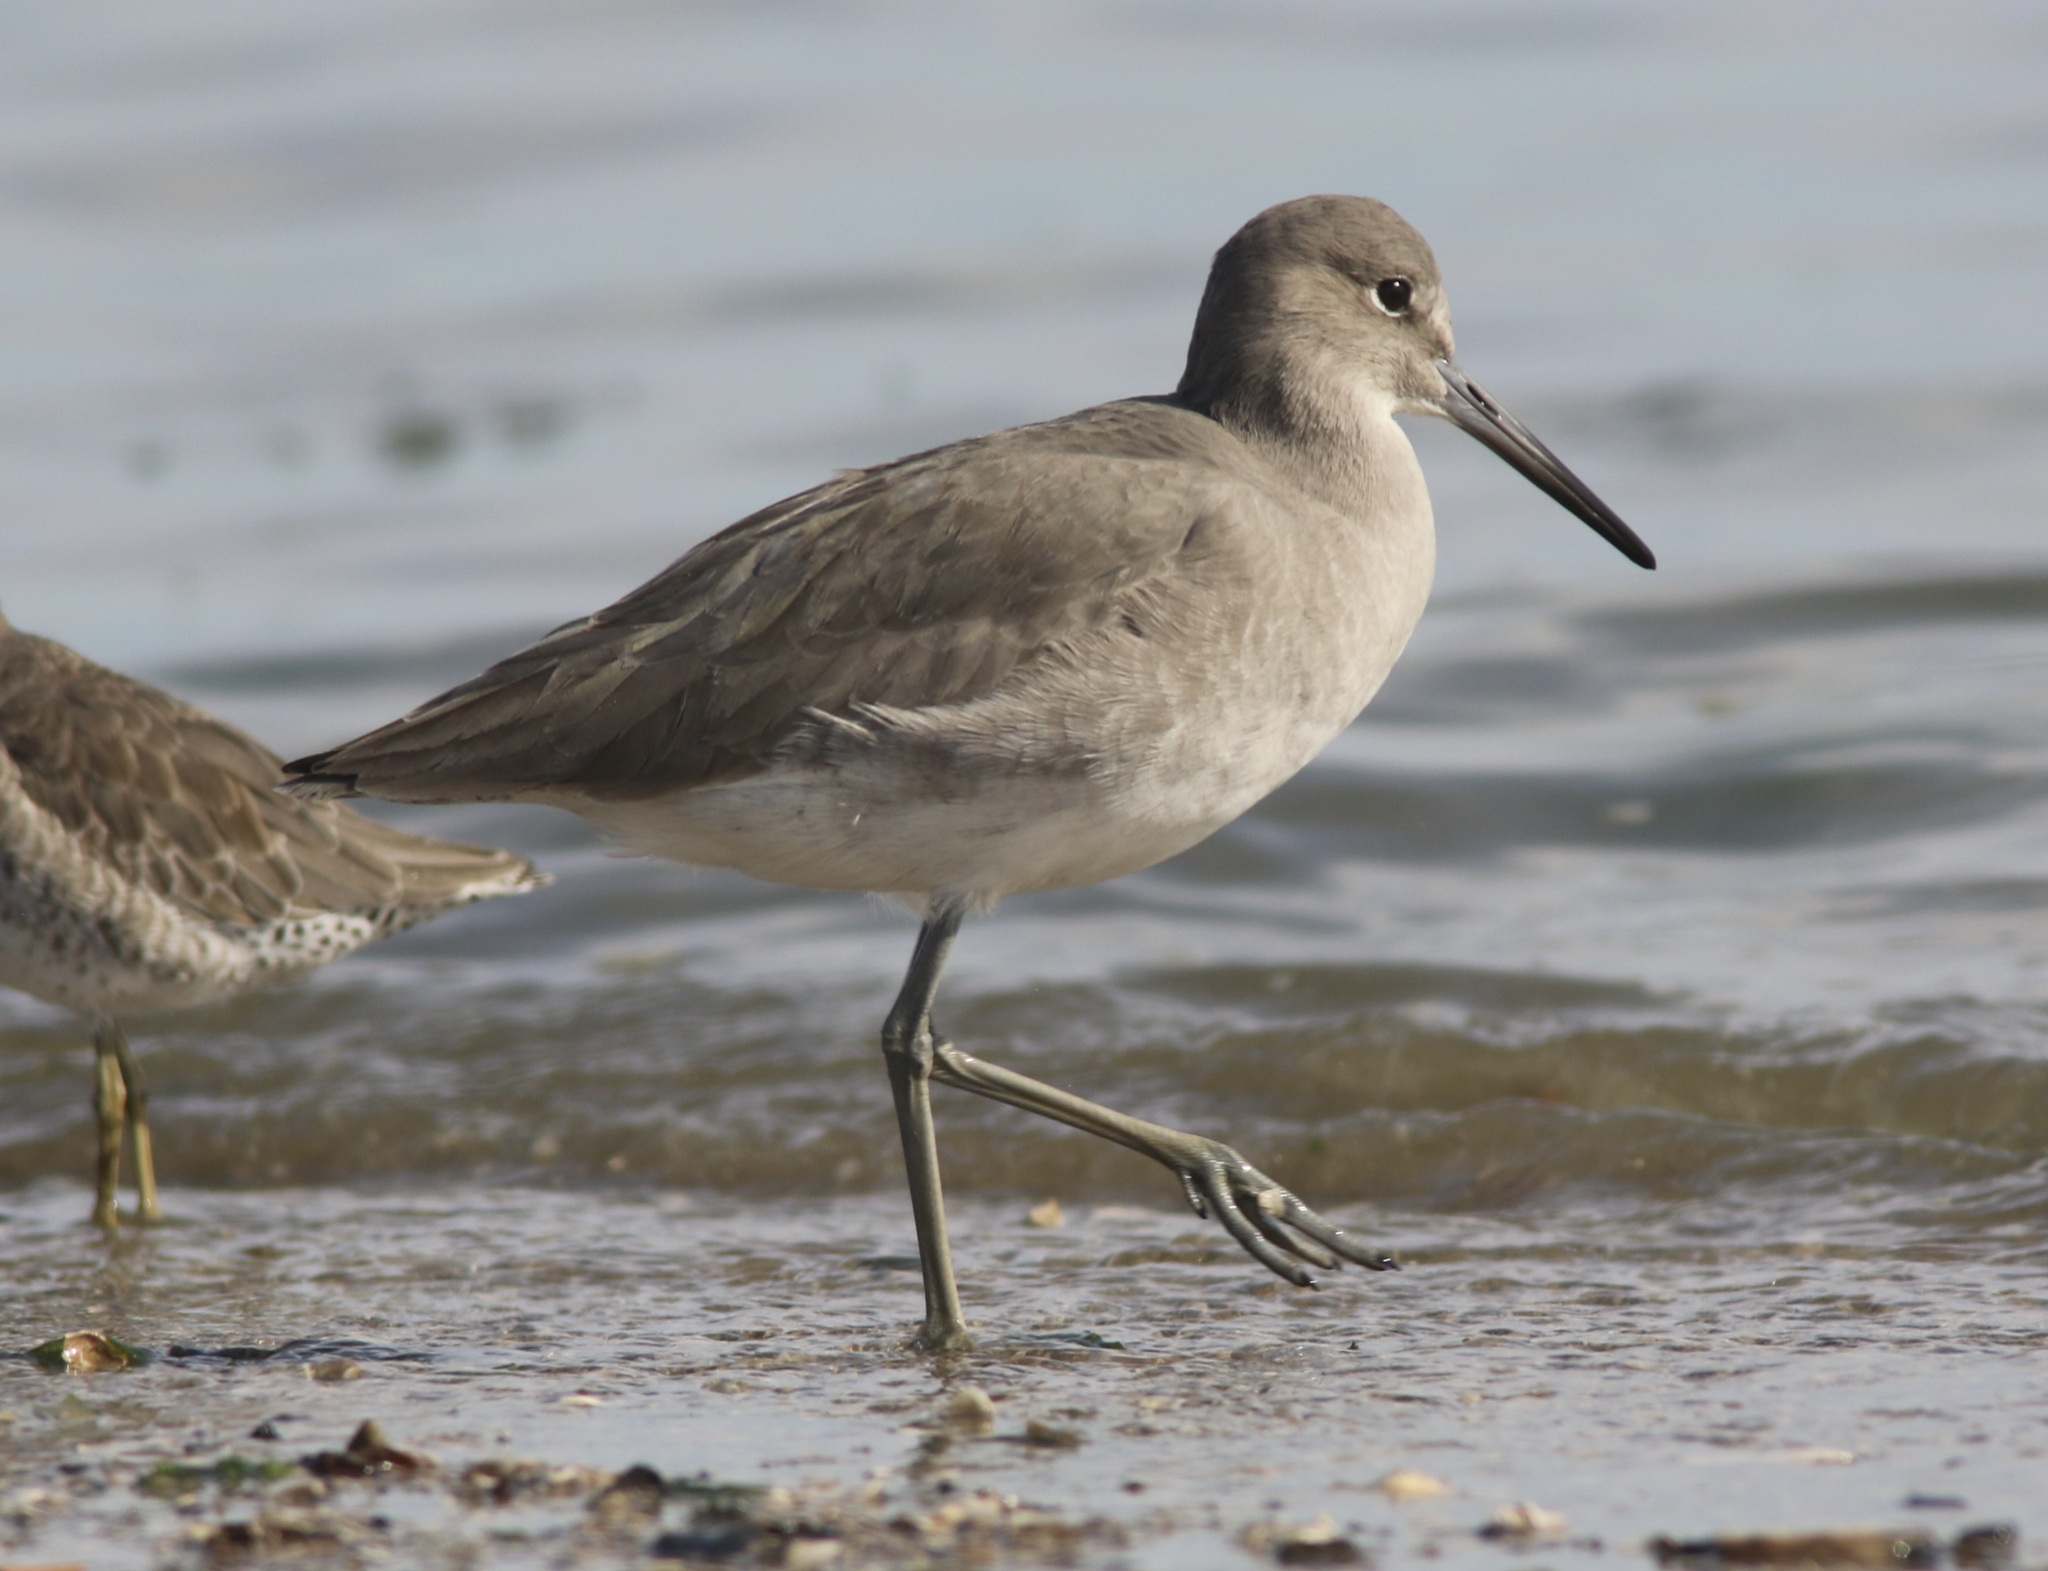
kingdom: Animalia
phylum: Chordata
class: Aves
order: Charadriiformes
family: Scolopacidae
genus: Tringa
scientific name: Tringa semipalmata
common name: Willet
